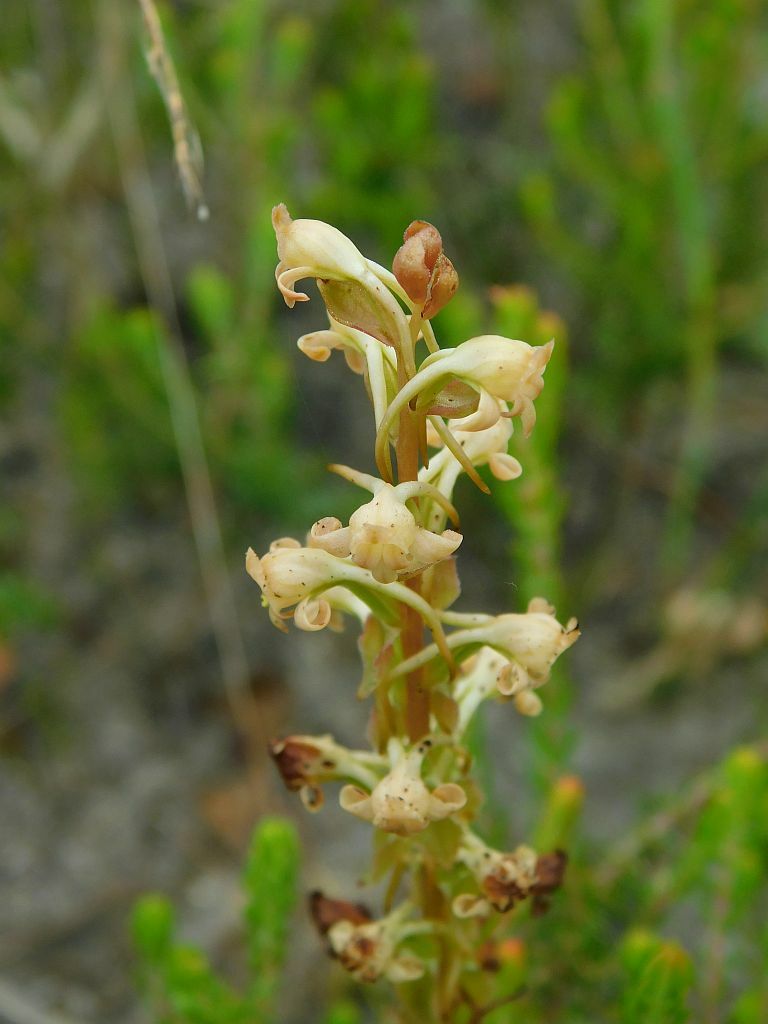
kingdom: Plantae
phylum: Tracheophyta
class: Liliopsida
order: Asparagales
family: Orchidaceae
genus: Satyrium
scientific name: Satyrium humile
